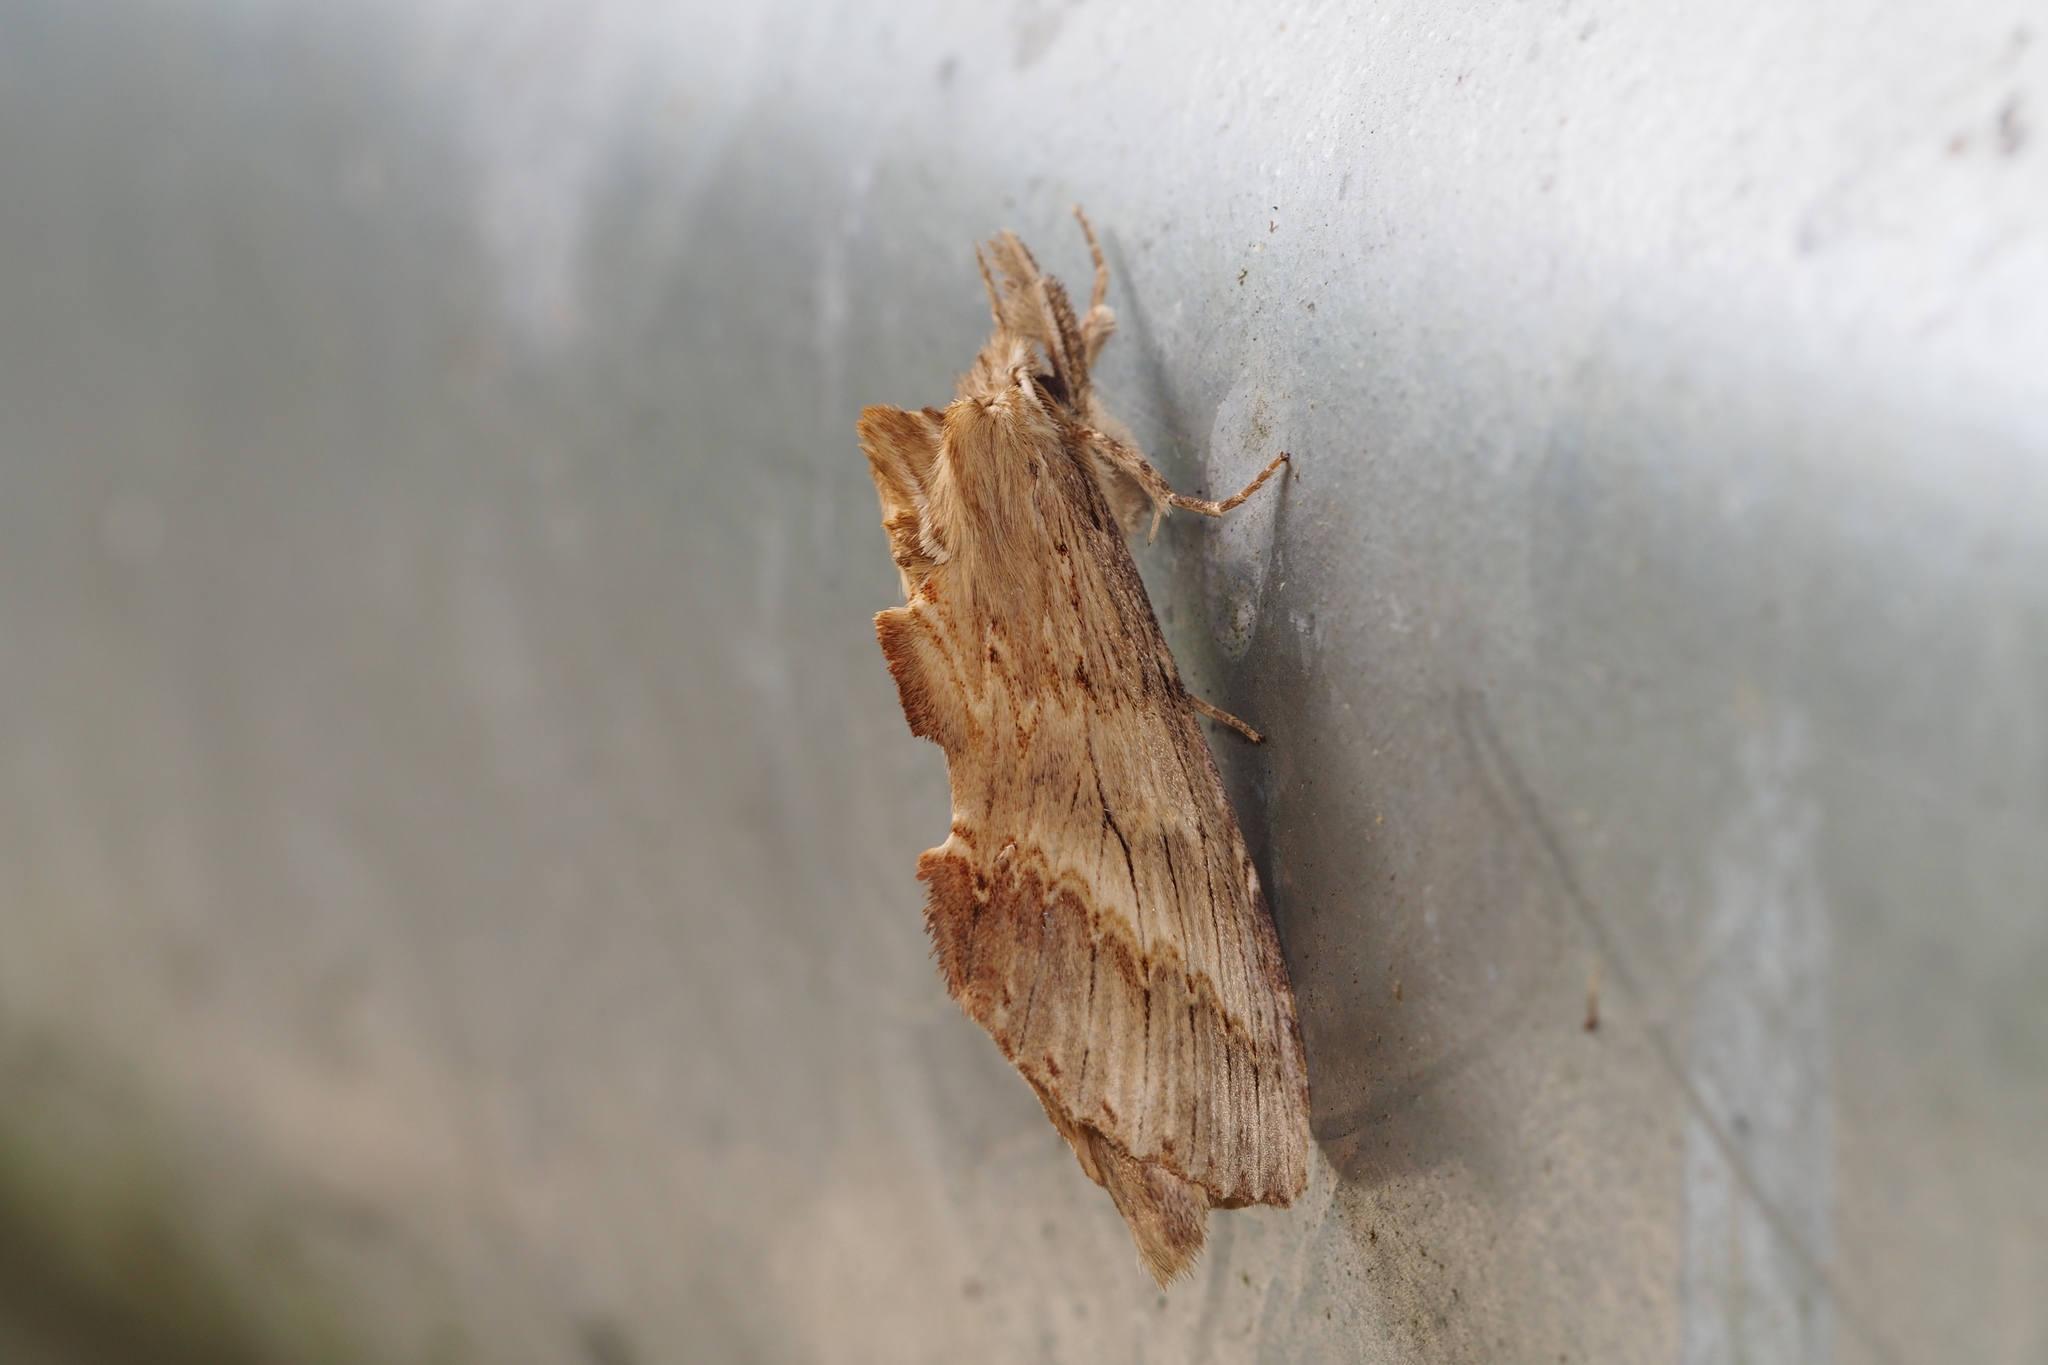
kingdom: Animalia
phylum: Arthropoda
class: Insecta
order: Lepidoptera
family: Notodontidae
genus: Pterostoma
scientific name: Pterostoma gigantina
